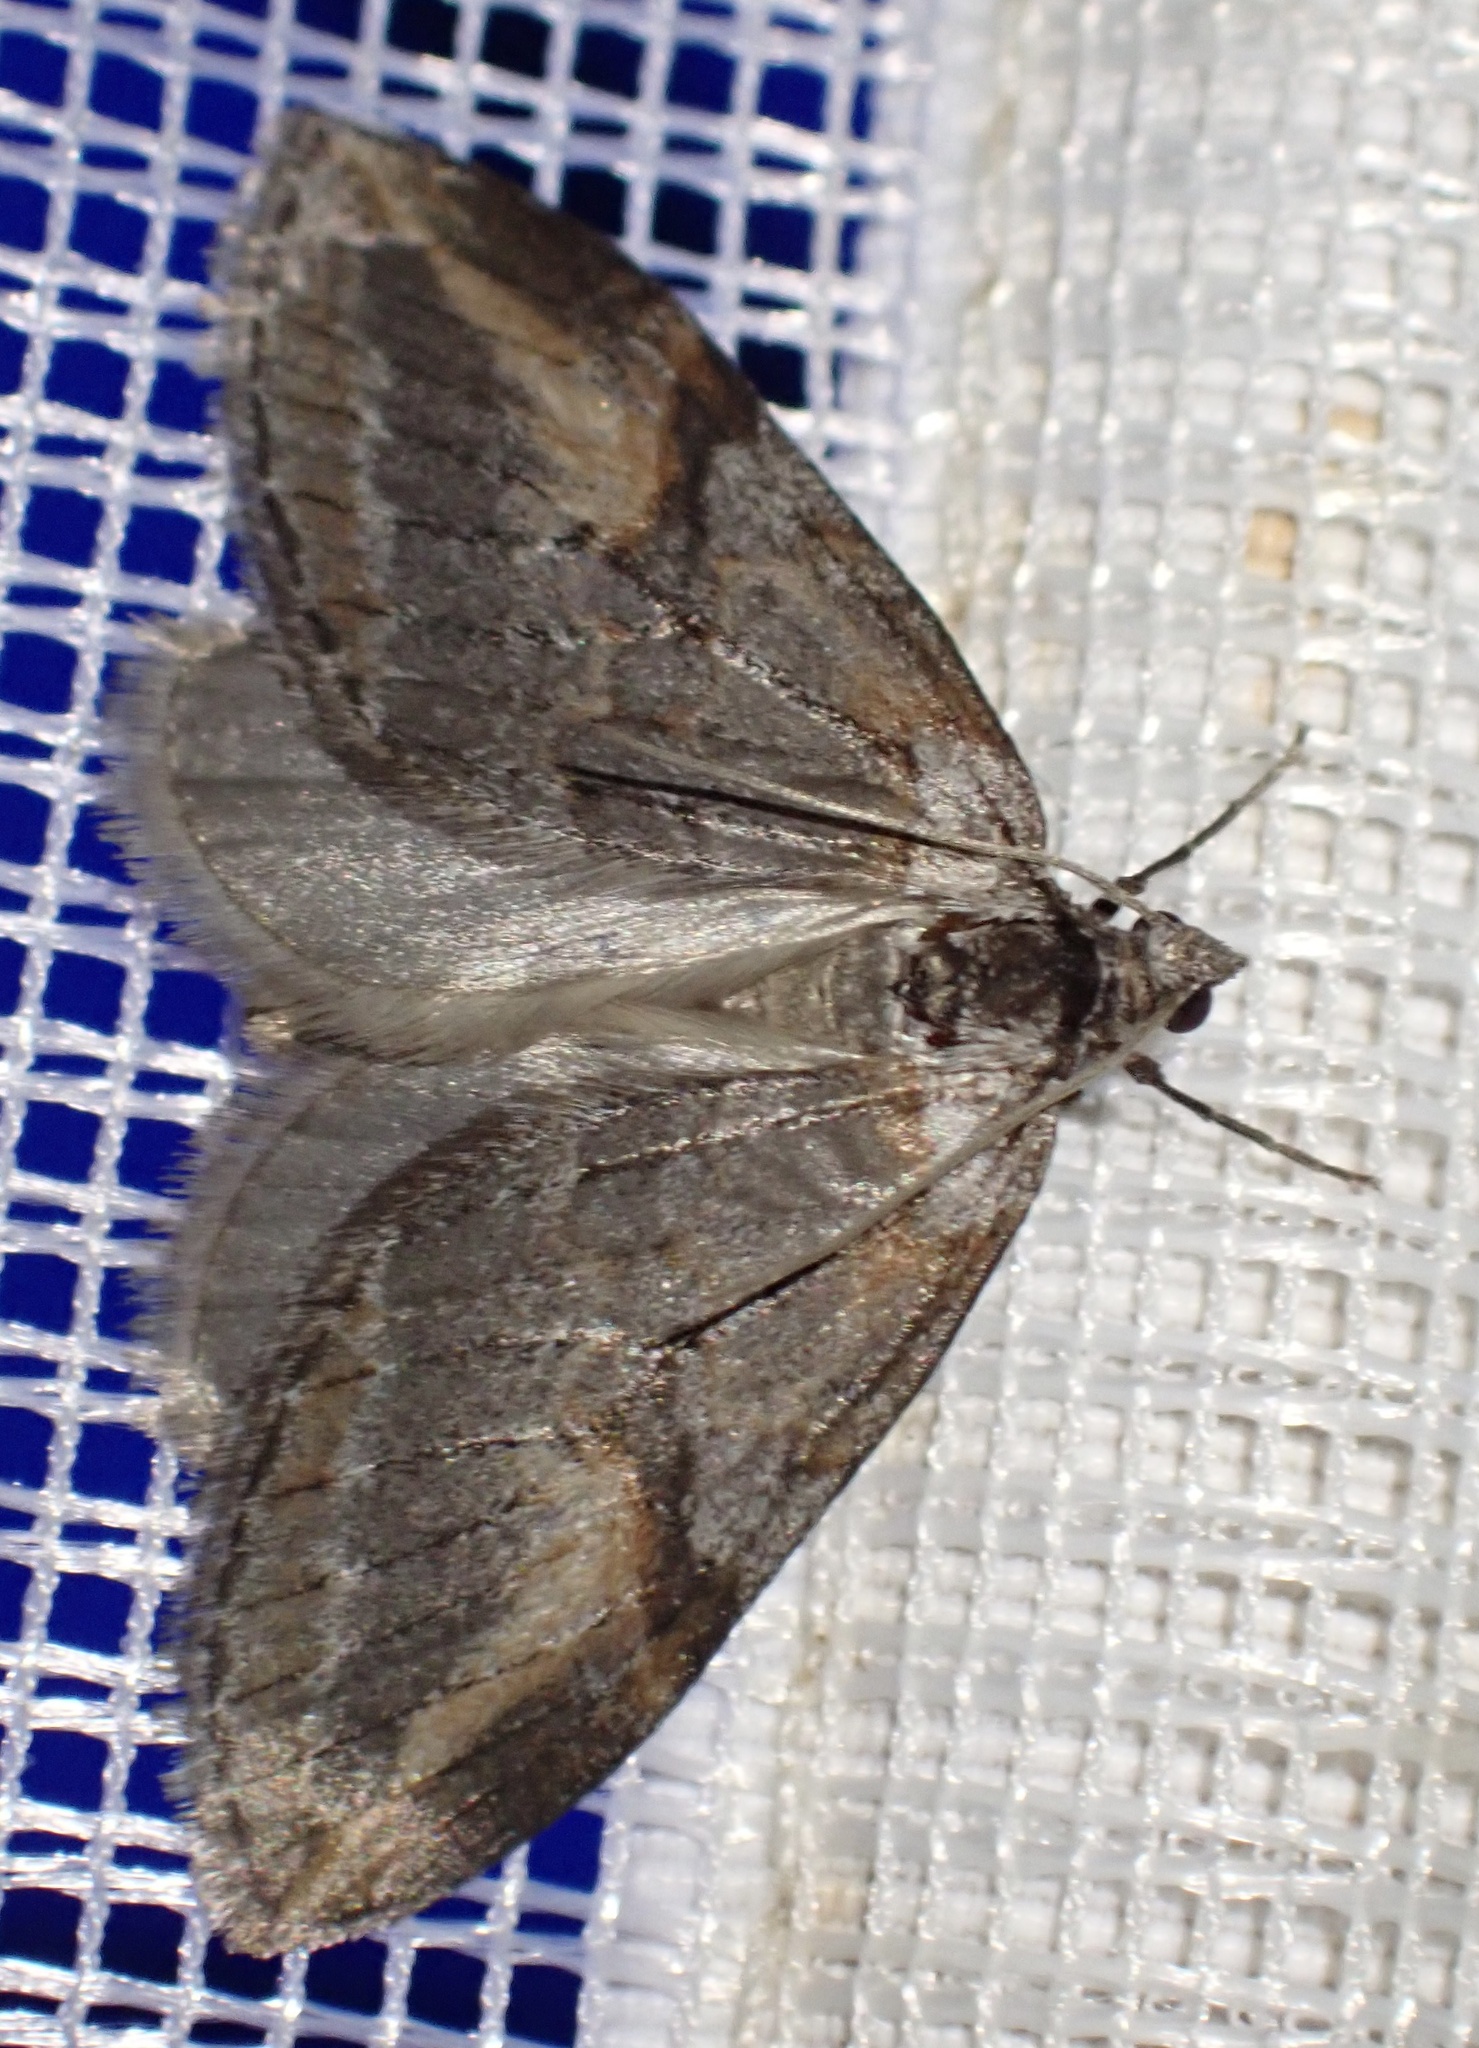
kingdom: Animalia
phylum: Arthropoda
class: Insecta
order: Lepidoptera
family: Geometridae
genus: Chesias
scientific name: Chesias rufata
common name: Broom-tip
